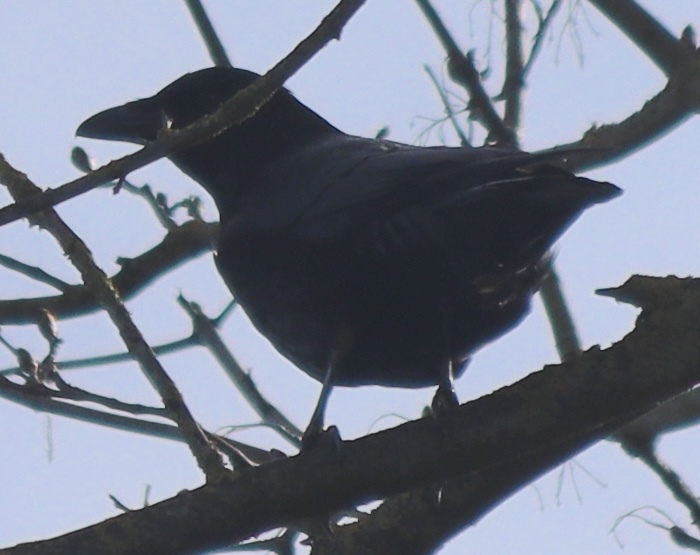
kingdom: Animalia
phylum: Chordata
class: Aves
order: Passeriformes
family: Corvidae
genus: Corvus
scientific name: Corvus corone
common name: Carrion crow
